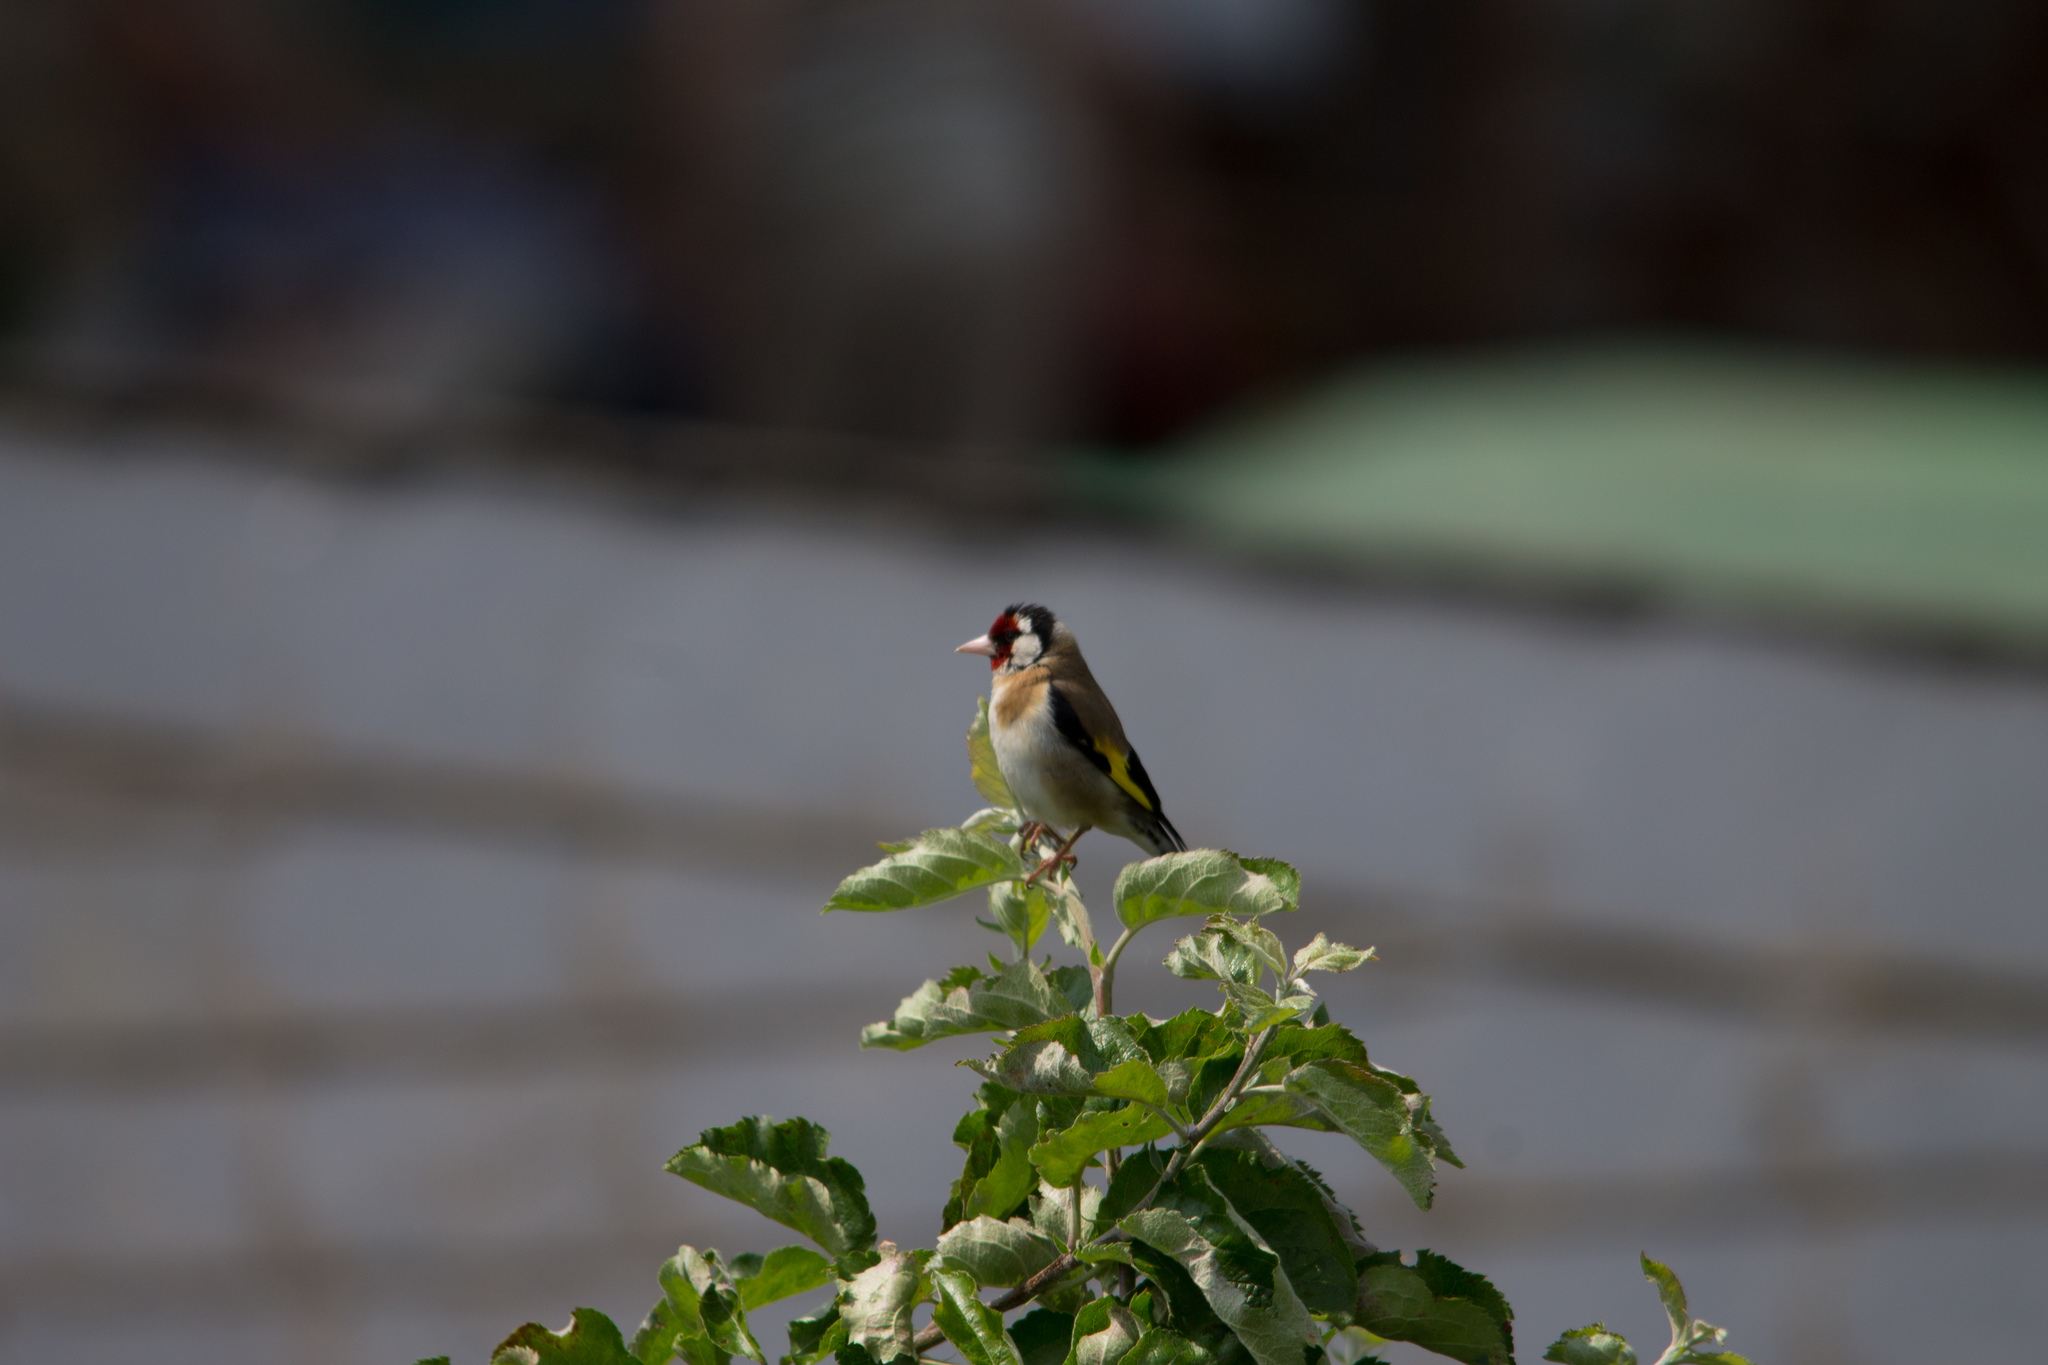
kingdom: Animalia
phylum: Chordata
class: Aves
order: Passeriformes
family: Fringillidae
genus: Carduelis
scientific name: Carduelis carduelis
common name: European goldfinch
